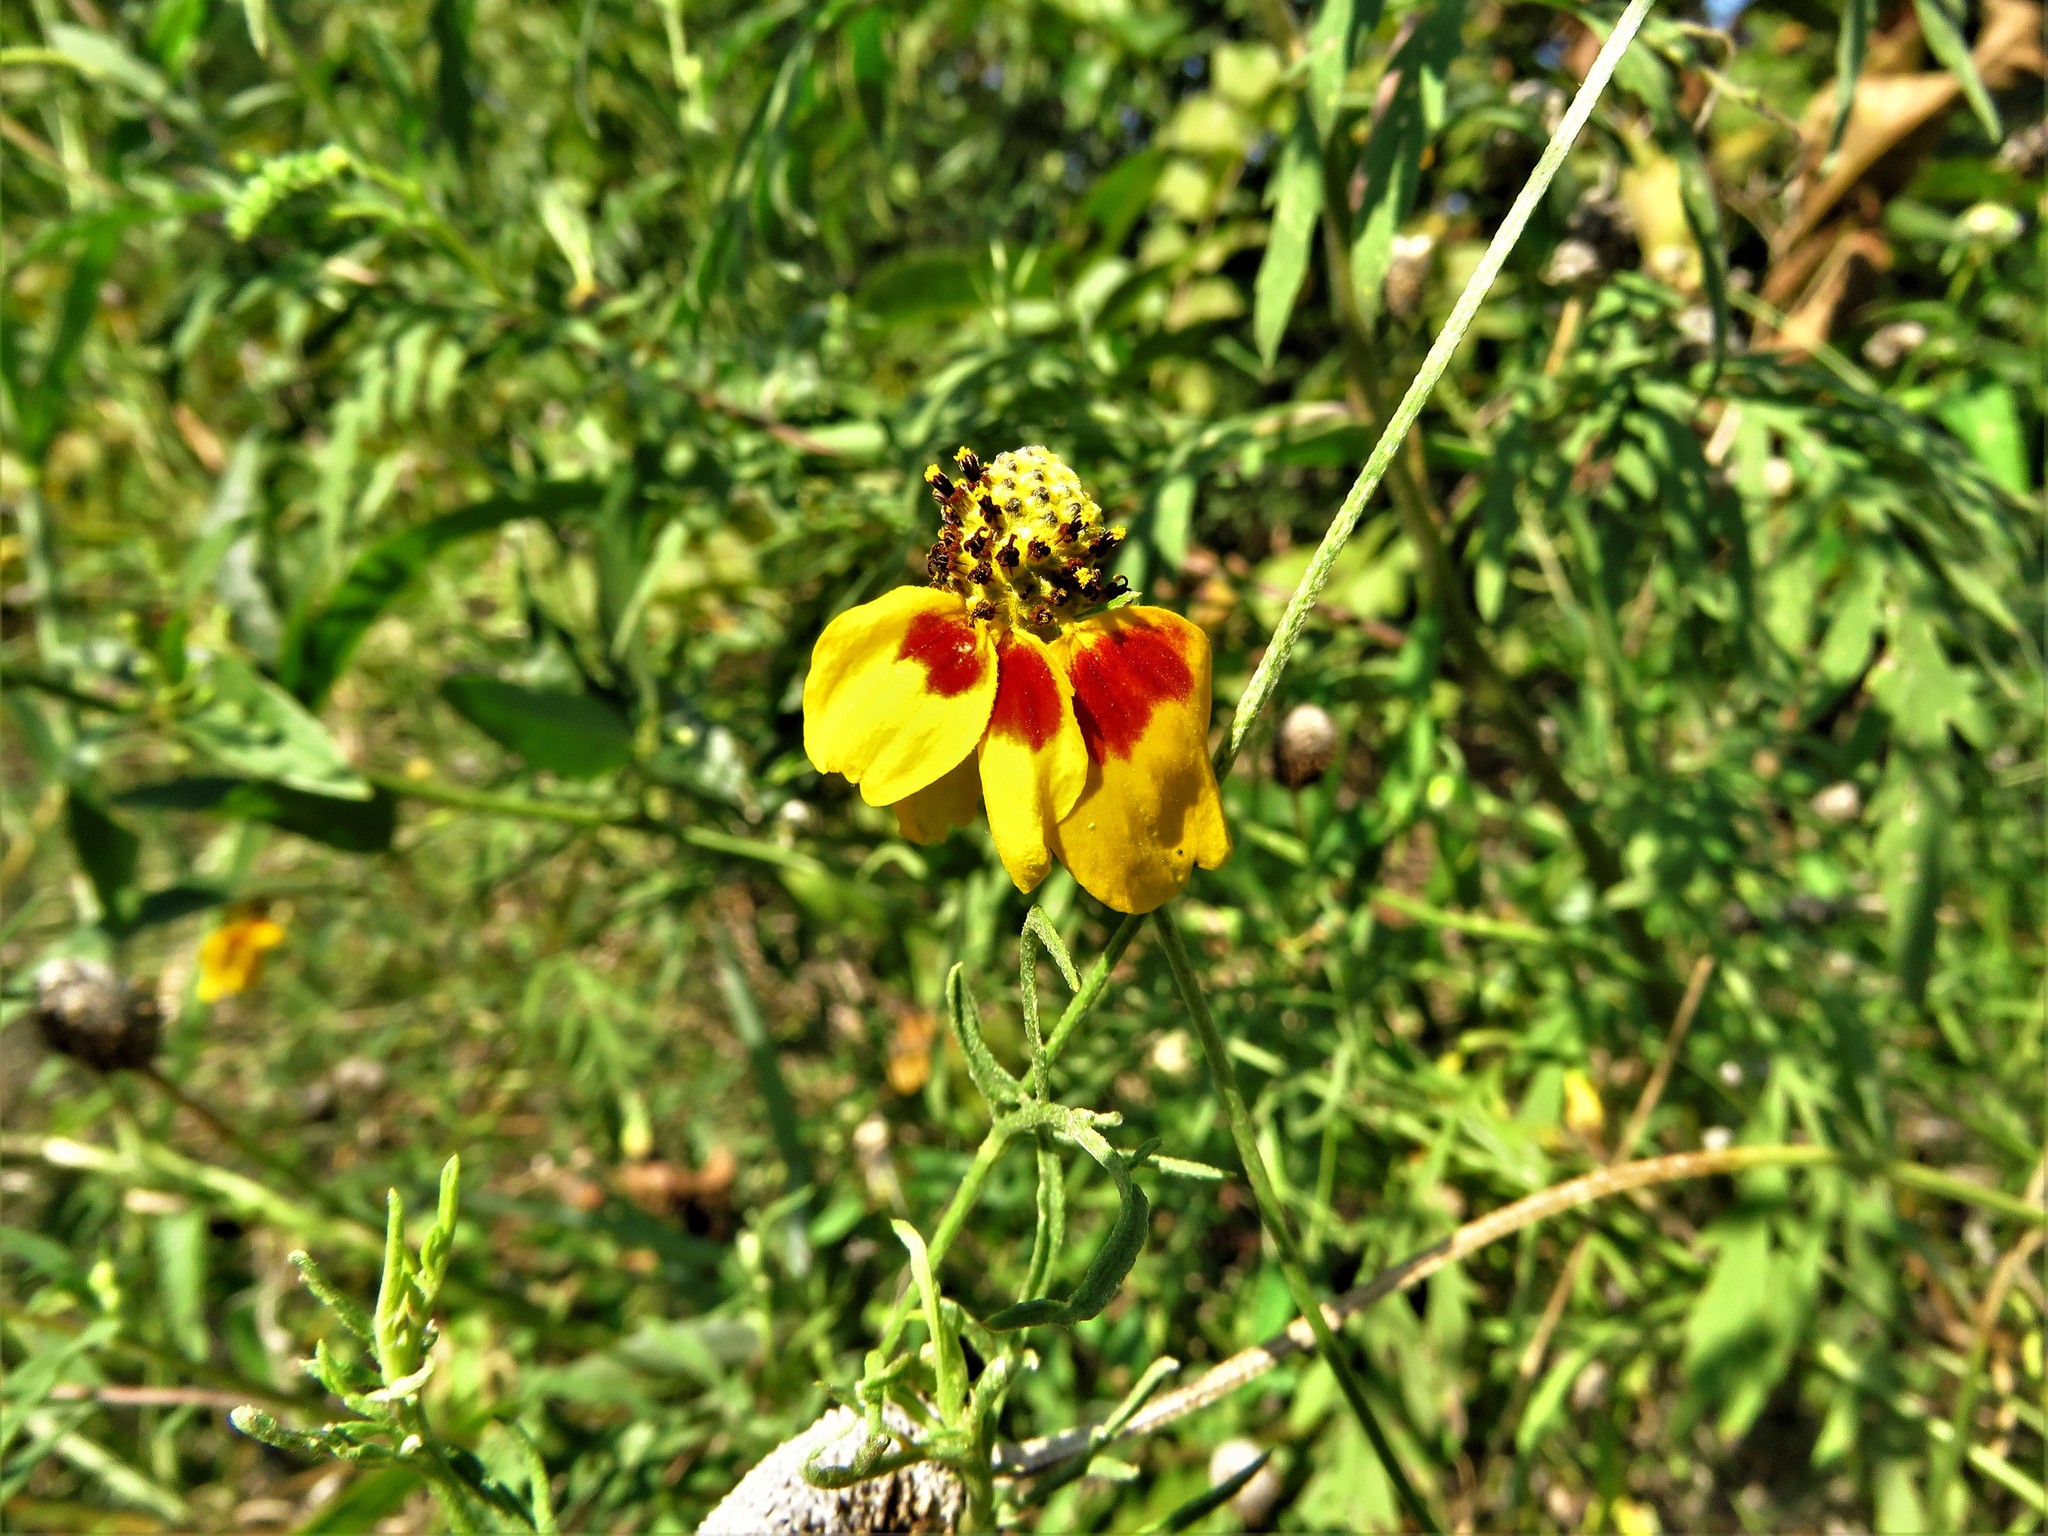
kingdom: Plantae
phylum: Tracheophyta
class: Magnoliopsida
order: Asterales
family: Asteraceae
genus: Ratibida
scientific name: Ratibida columnifera
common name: Prairie coneflower
